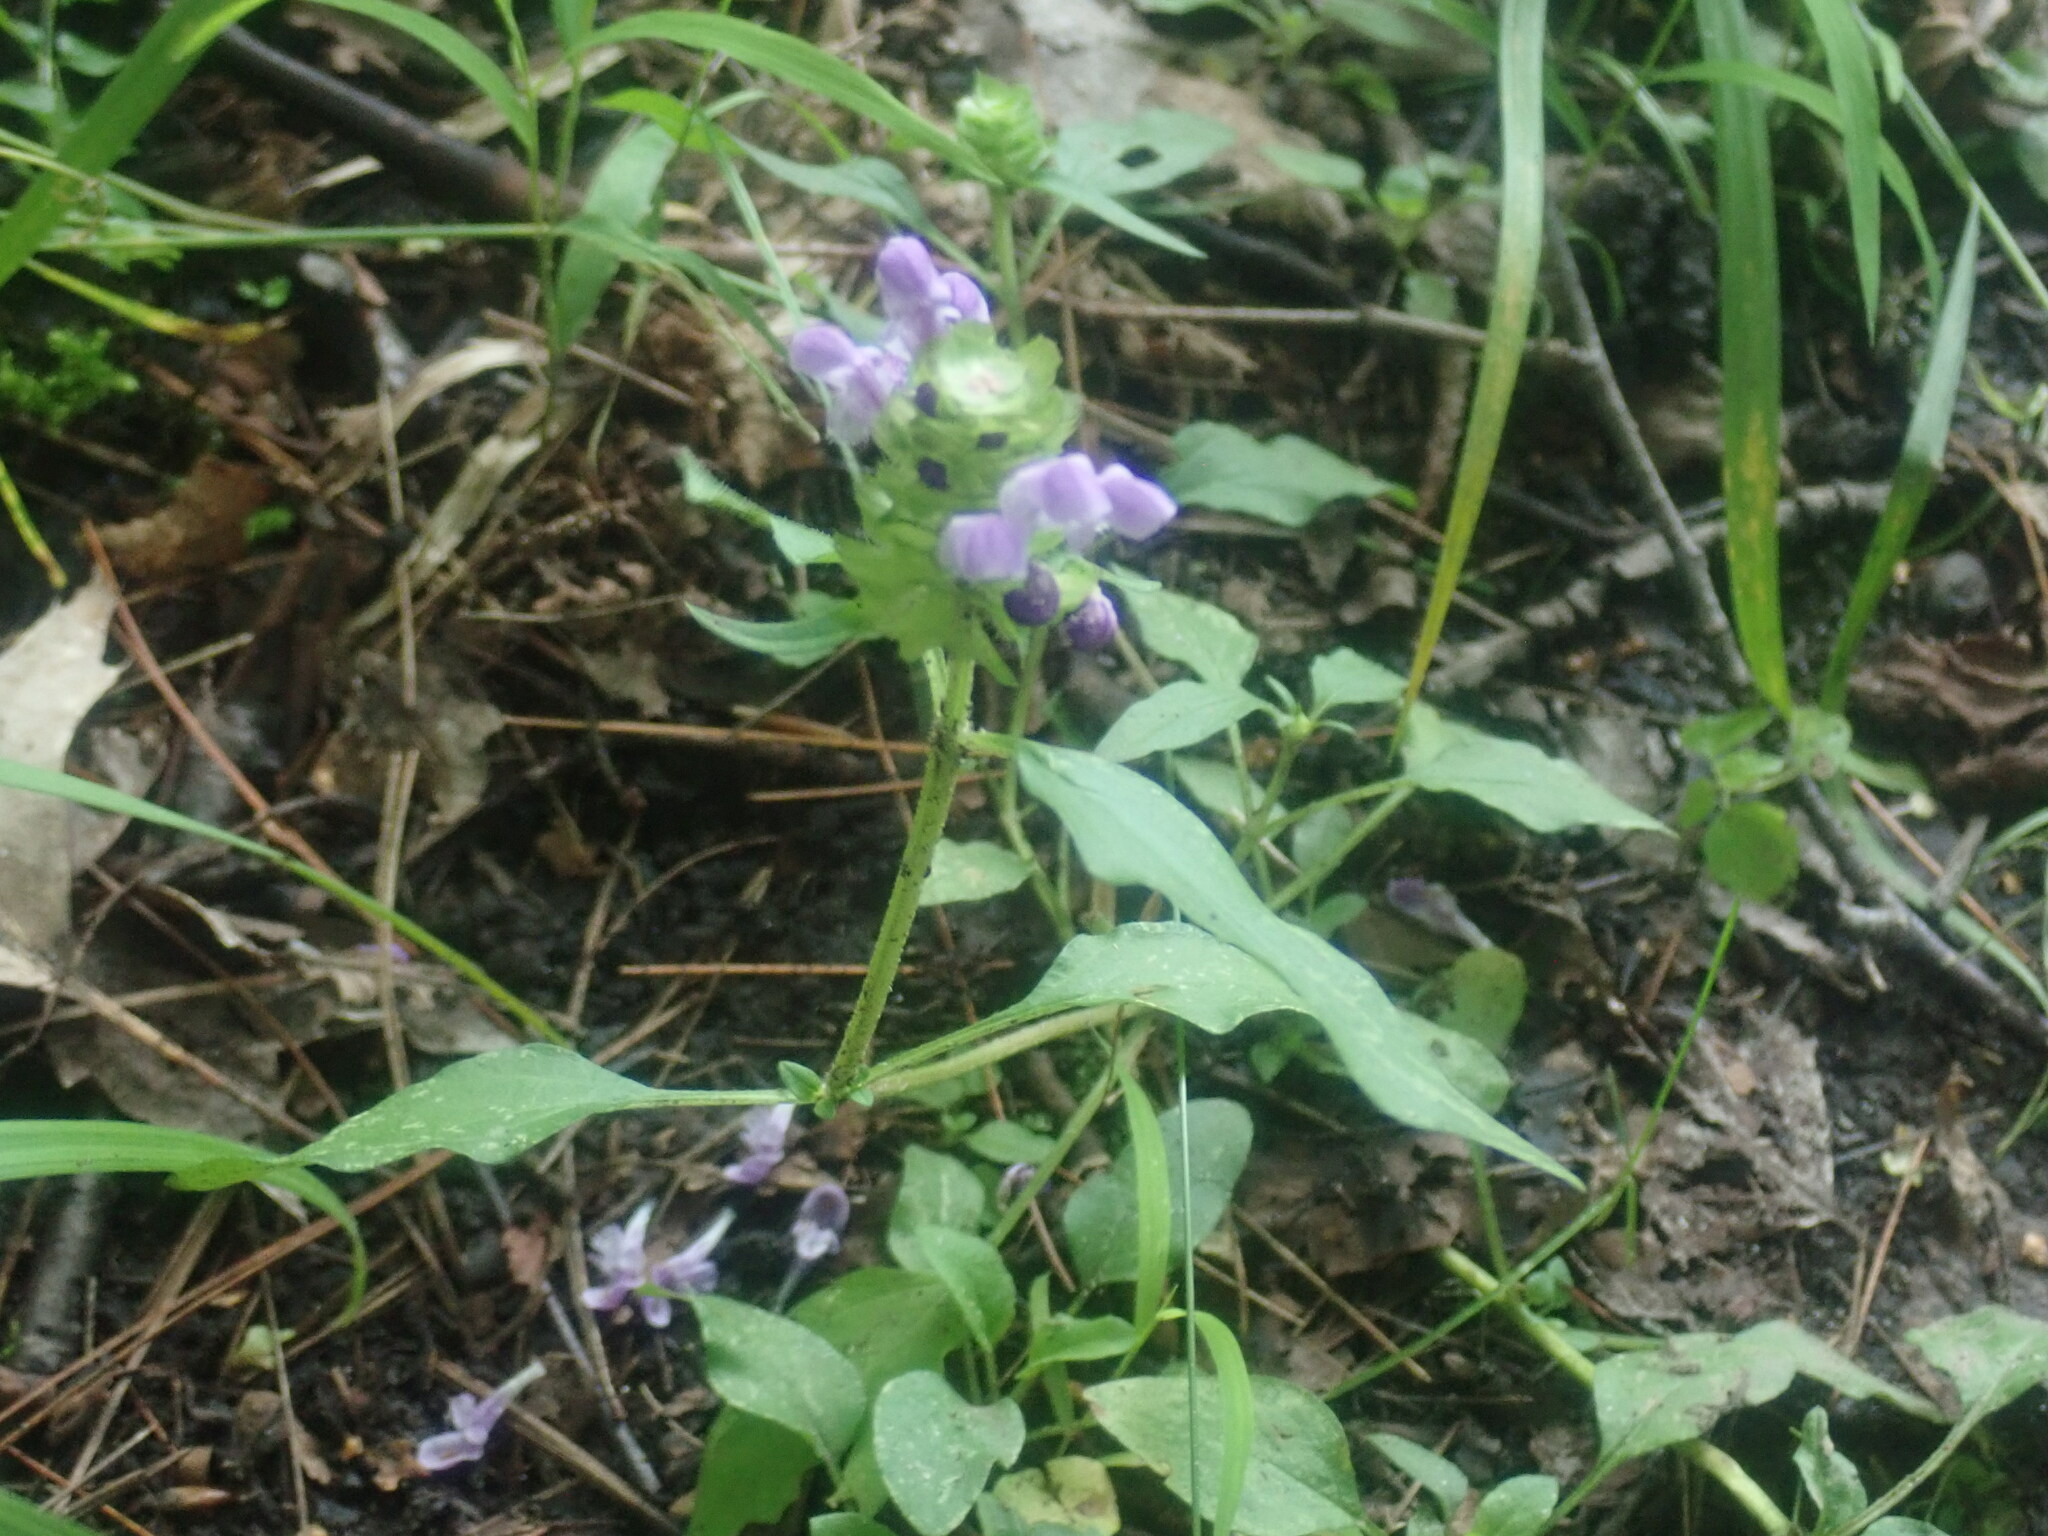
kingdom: Plantae
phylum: Tracheophyta
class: Magnoliopsida
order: Lamiales
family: Lamiaceae
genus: Prunella
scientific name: Prunella vulgaris
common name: Heal-all
